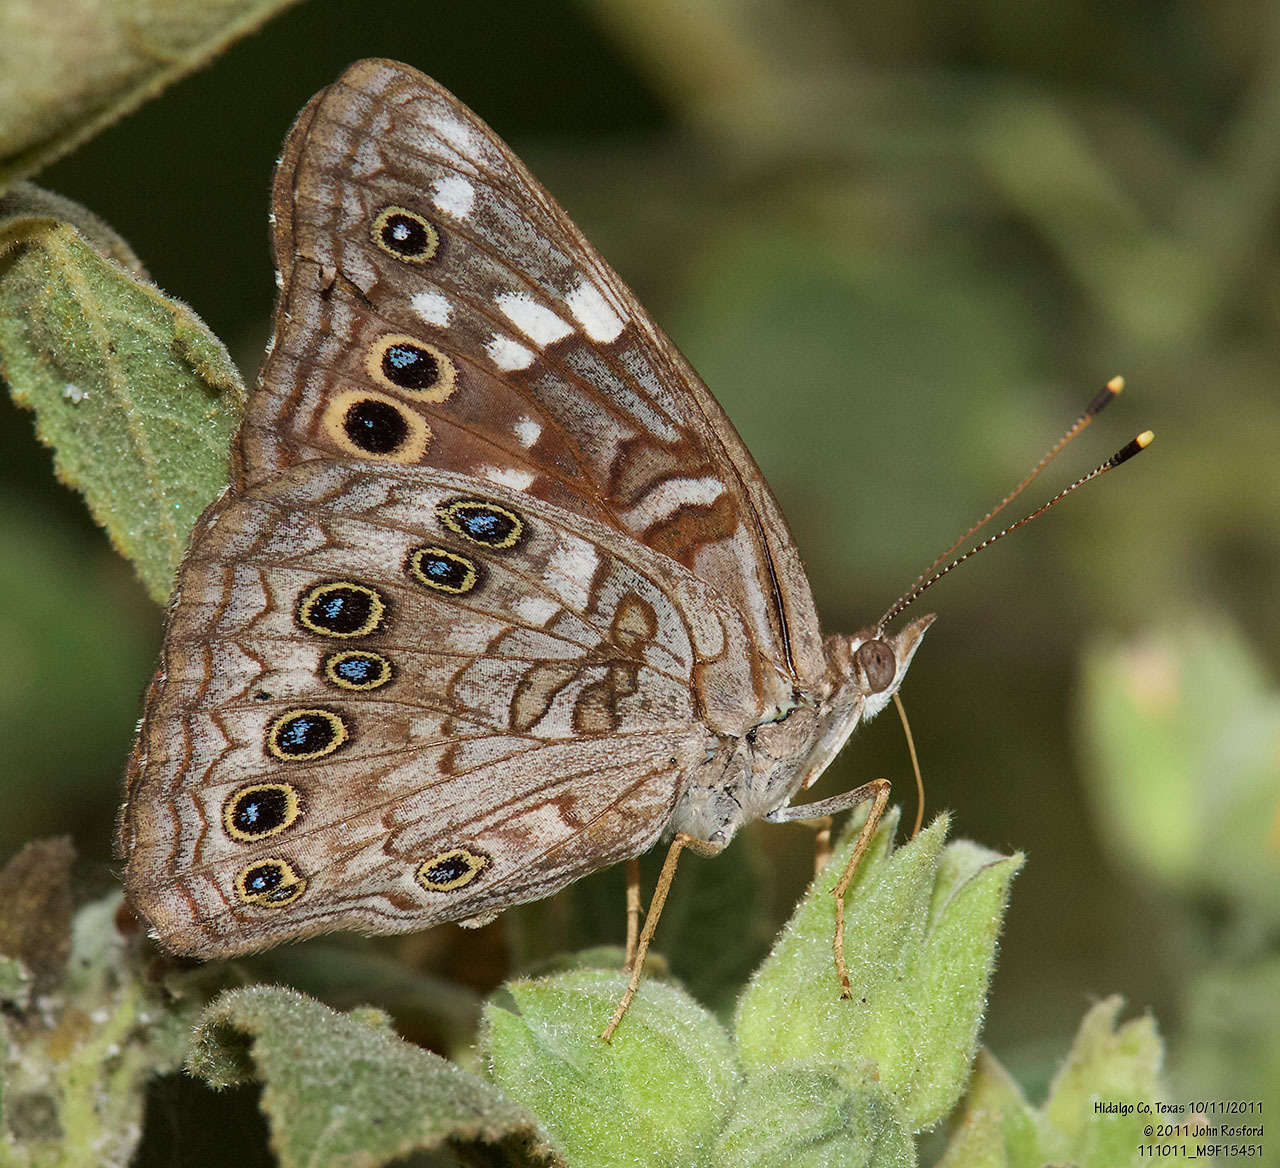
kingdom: Animalia
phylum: Arthropoda
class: Insecta
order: Lepidoptera
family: Nymphalidae
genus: Asterocampa
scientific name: Asterocampa leilia
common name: Empress leilia
